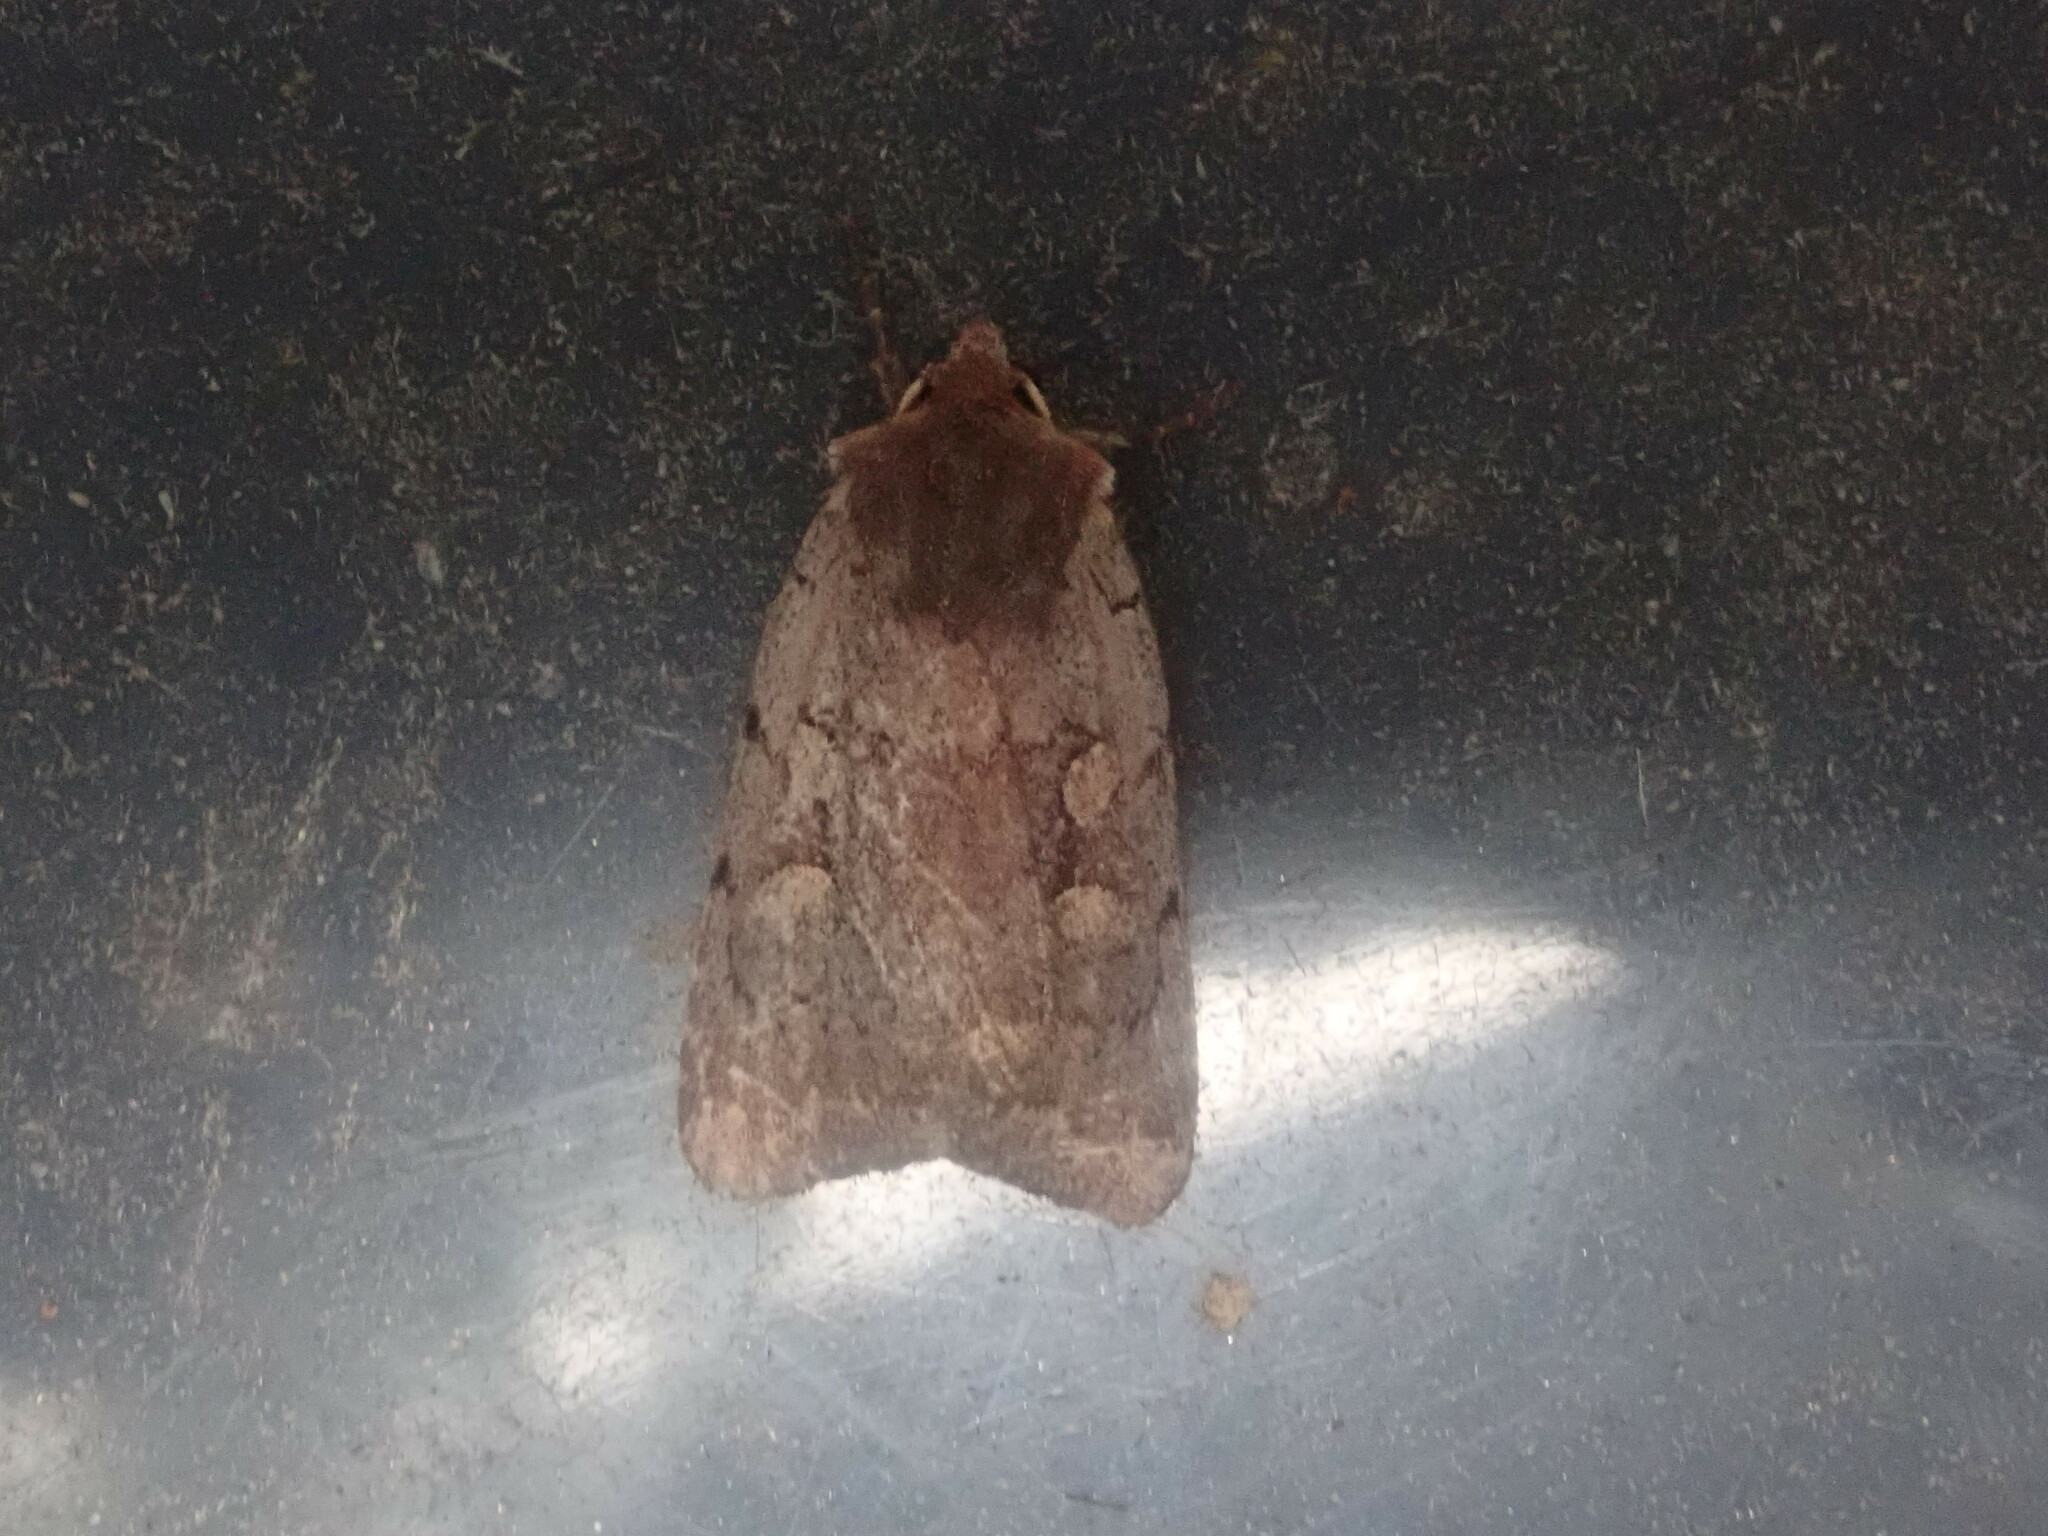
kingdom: Animalia
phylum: Arthropoda
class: Insecta
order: Lepidoptera
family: Noctuidae
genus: Xestia
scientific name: Xestia dilucida
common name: Dull reddish dart
